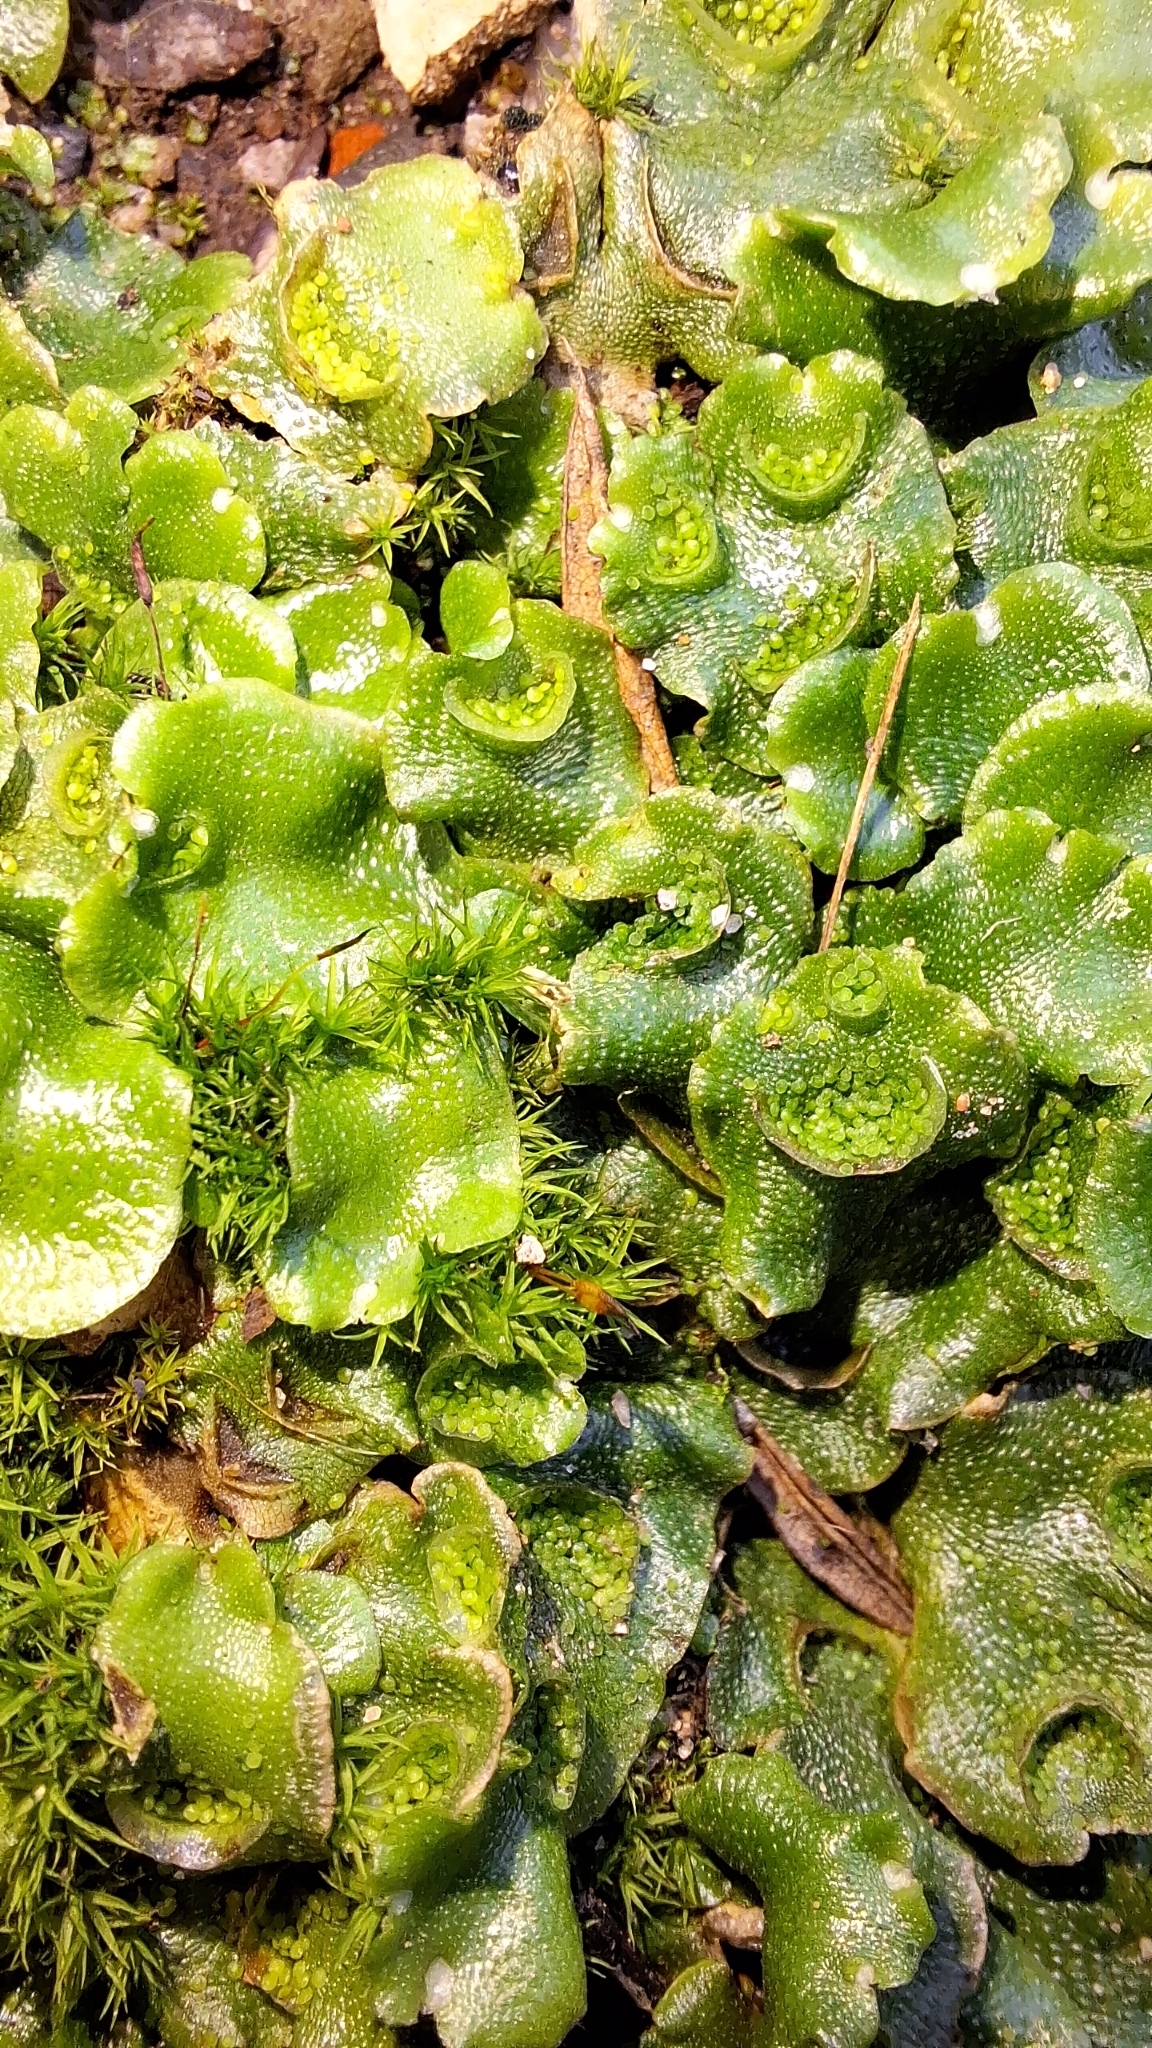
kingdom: Plantae
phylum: Marchantiophyta
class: Marchantiopsida
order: Lunulariales
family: Lunulariaceae
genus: Lunularia
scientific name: Lunularia cruciata
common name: Crescent-cup liverwort
